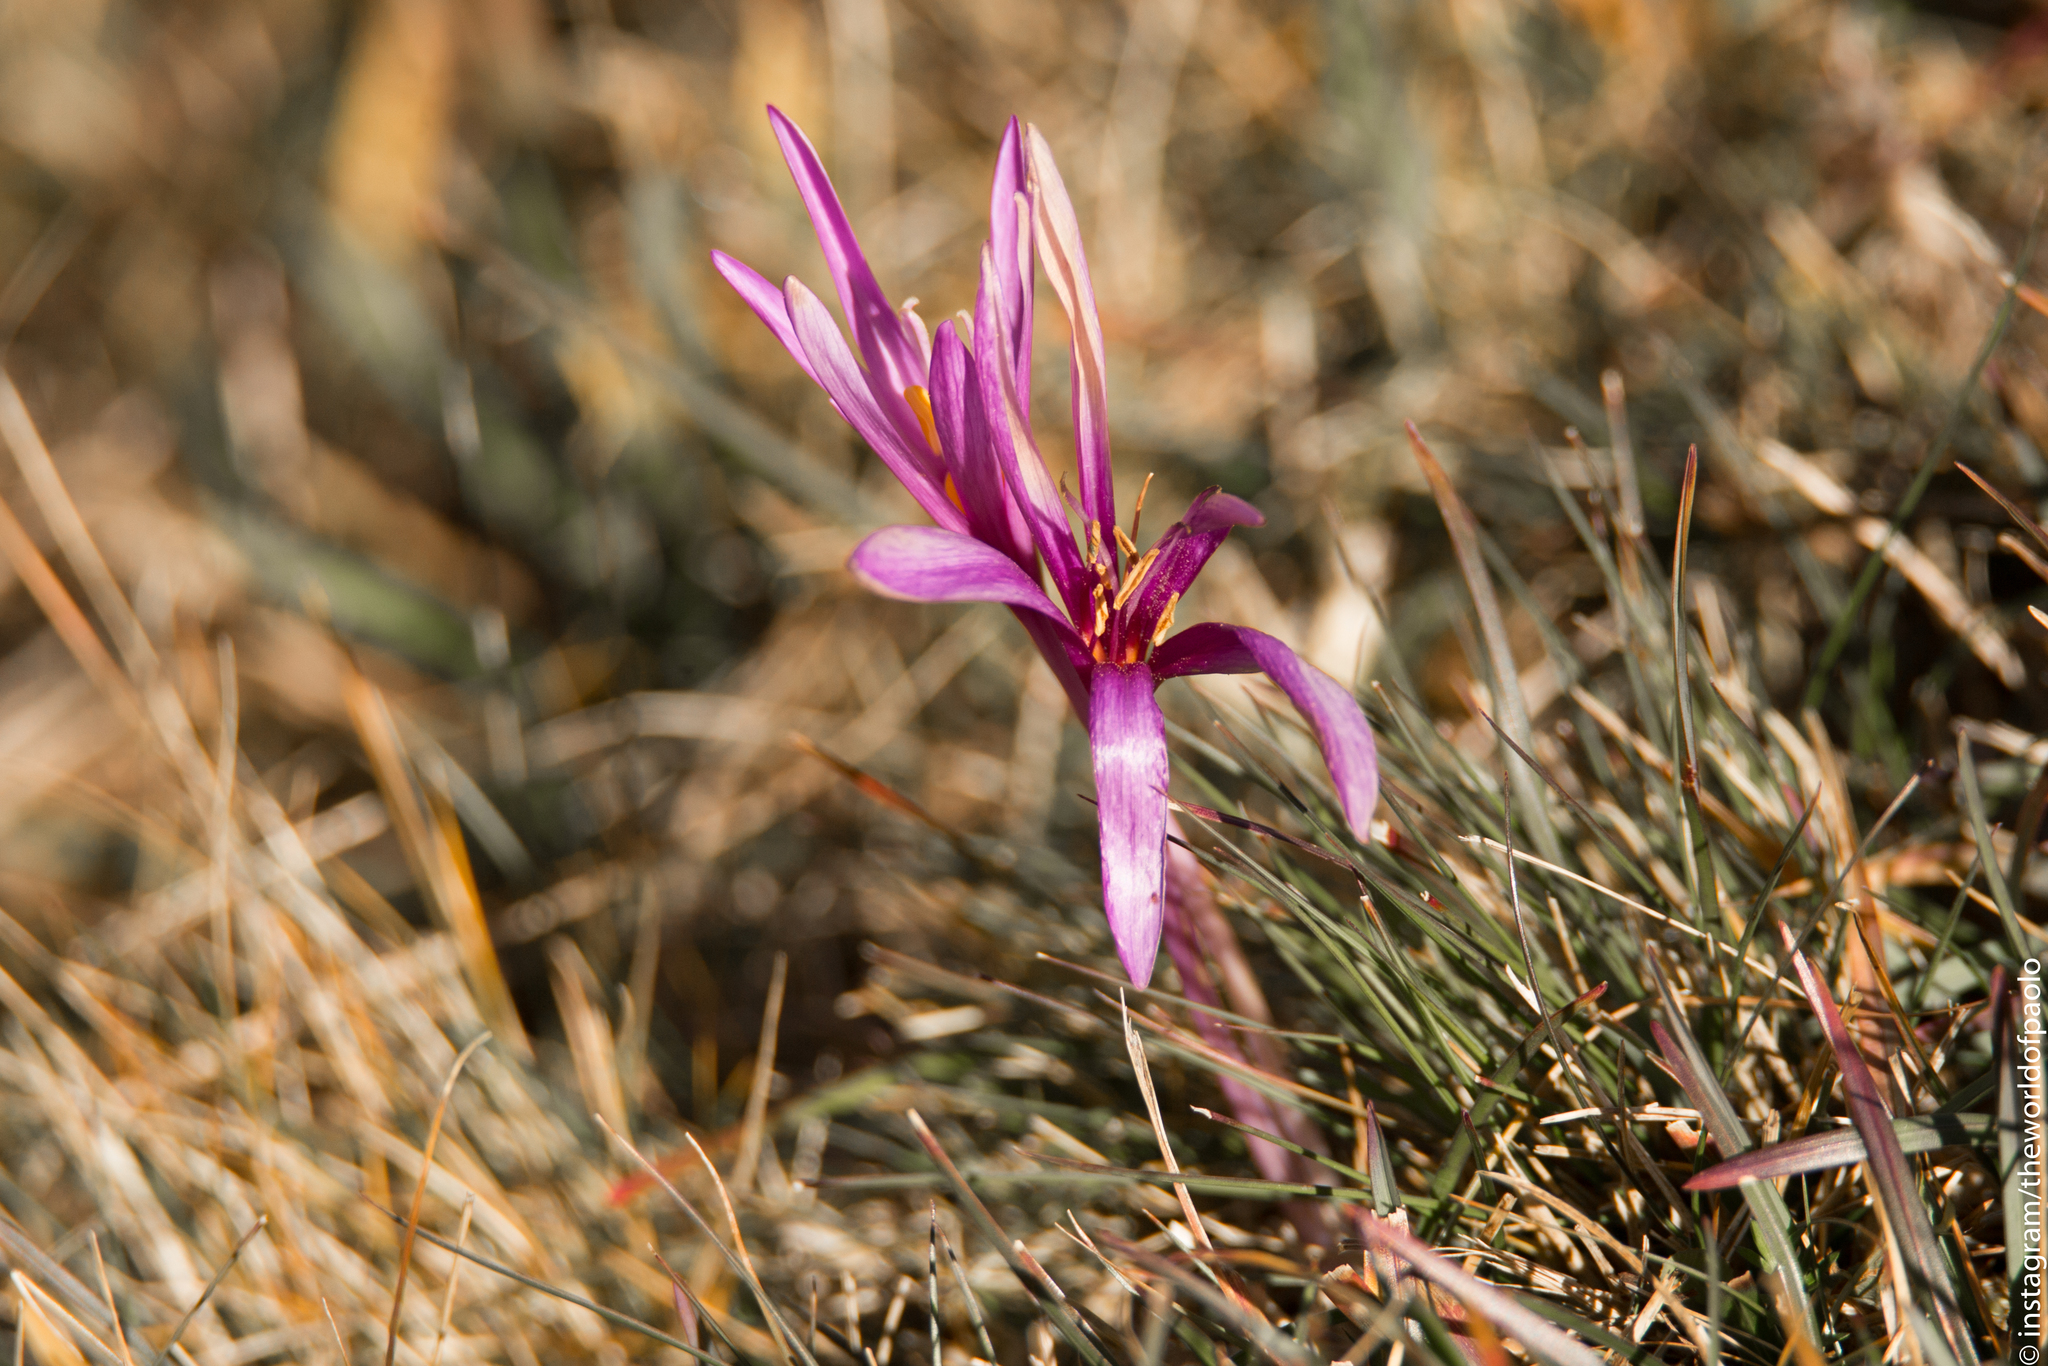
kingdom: Plantae
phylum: Tracheophyta
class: Liliopsida
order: Liliales
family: Colchicaceae
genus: Colchicum
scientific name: Colchicum autumnale
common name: Autumn crocus
